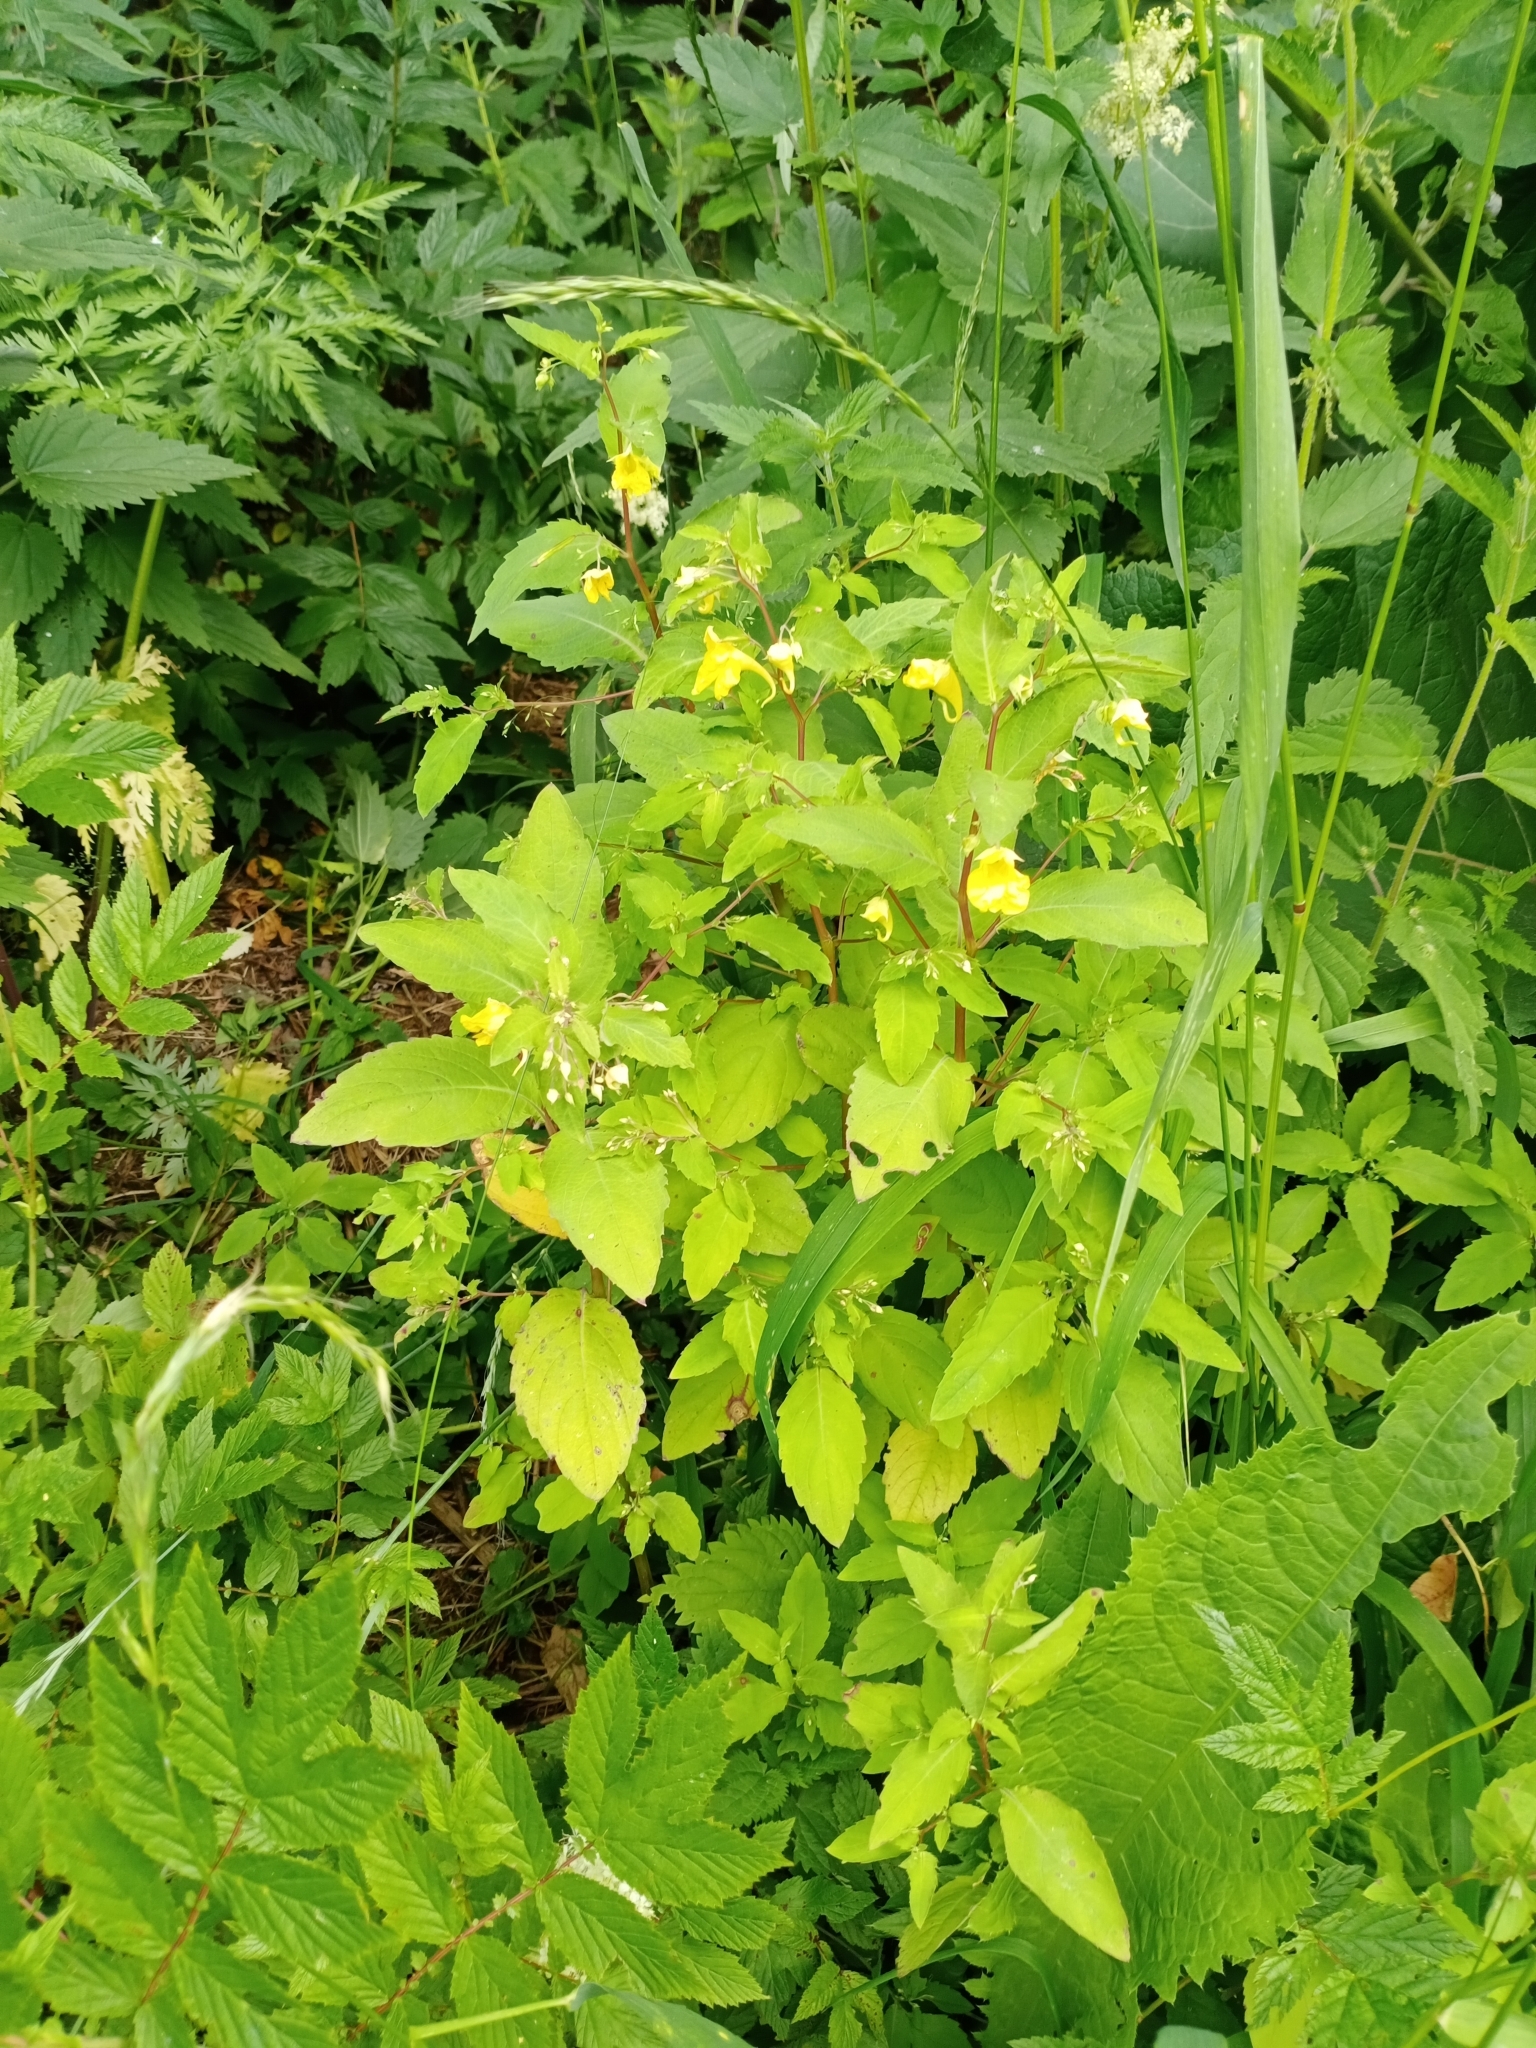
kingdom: Plantae
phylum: Tracheophyta
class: Magnoliopsida
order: Ericales
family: Balsaminaceae
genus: Impatiens
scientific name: Impatiens noli-tangere
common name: Touch-me-not balsam
